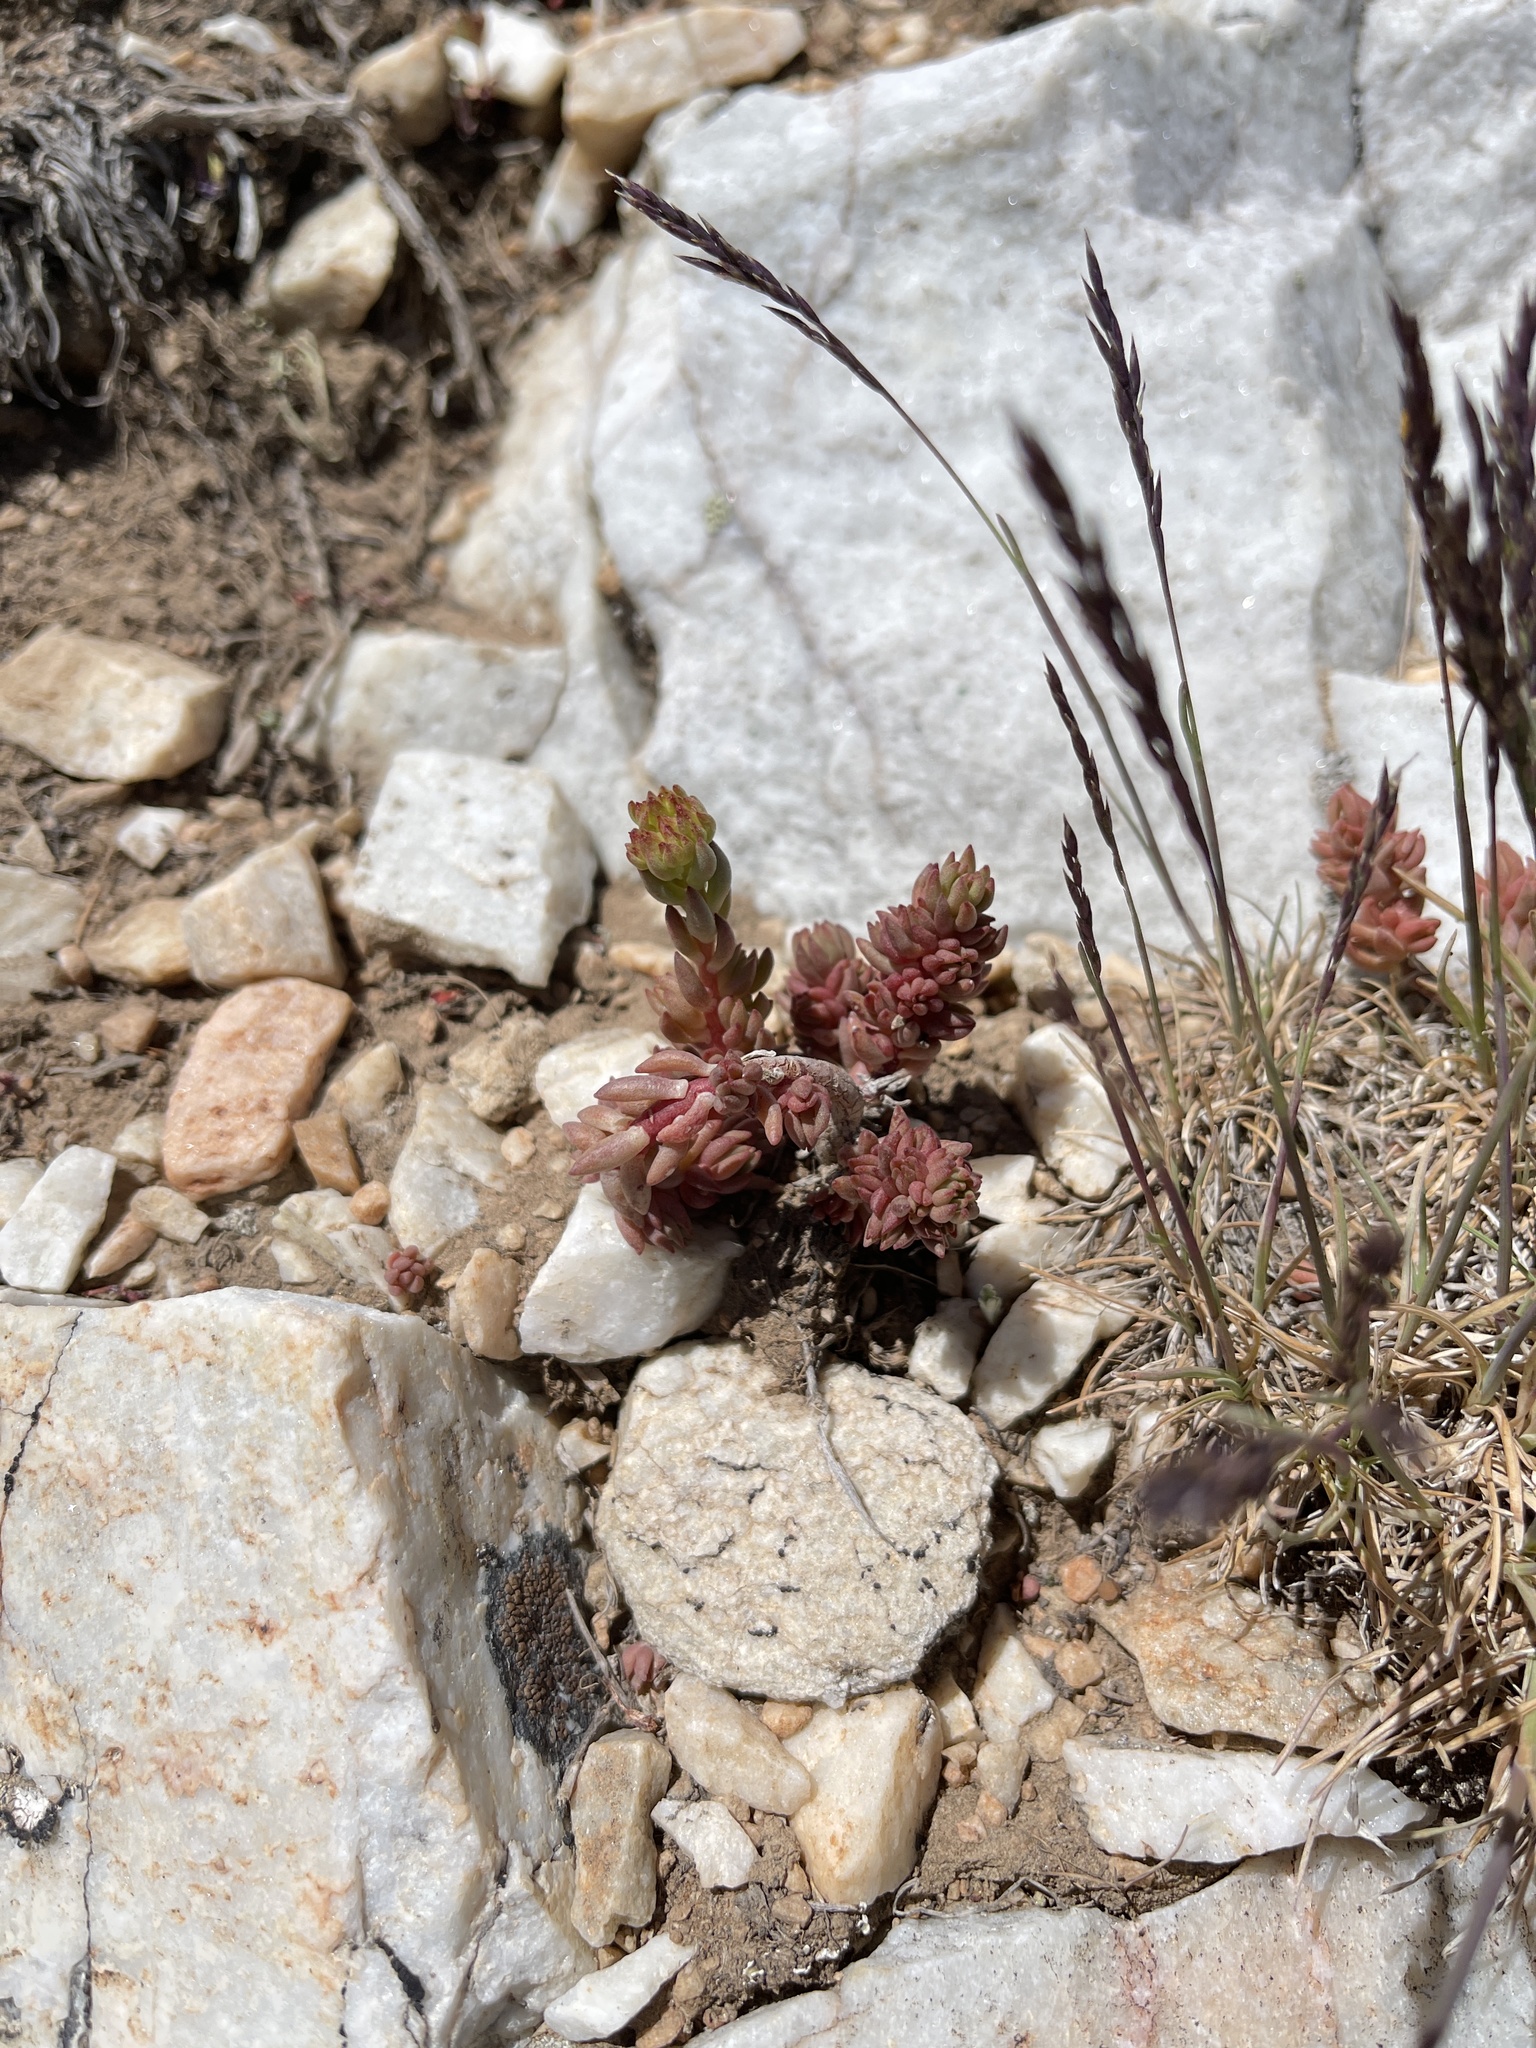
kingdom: Plantae
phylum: Tracheophyta
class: Magnoliopsida
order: Saxifragales
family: Crassulaceae
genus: Sedum
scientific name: Sedum lanceolatum
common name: Common stonecrop
